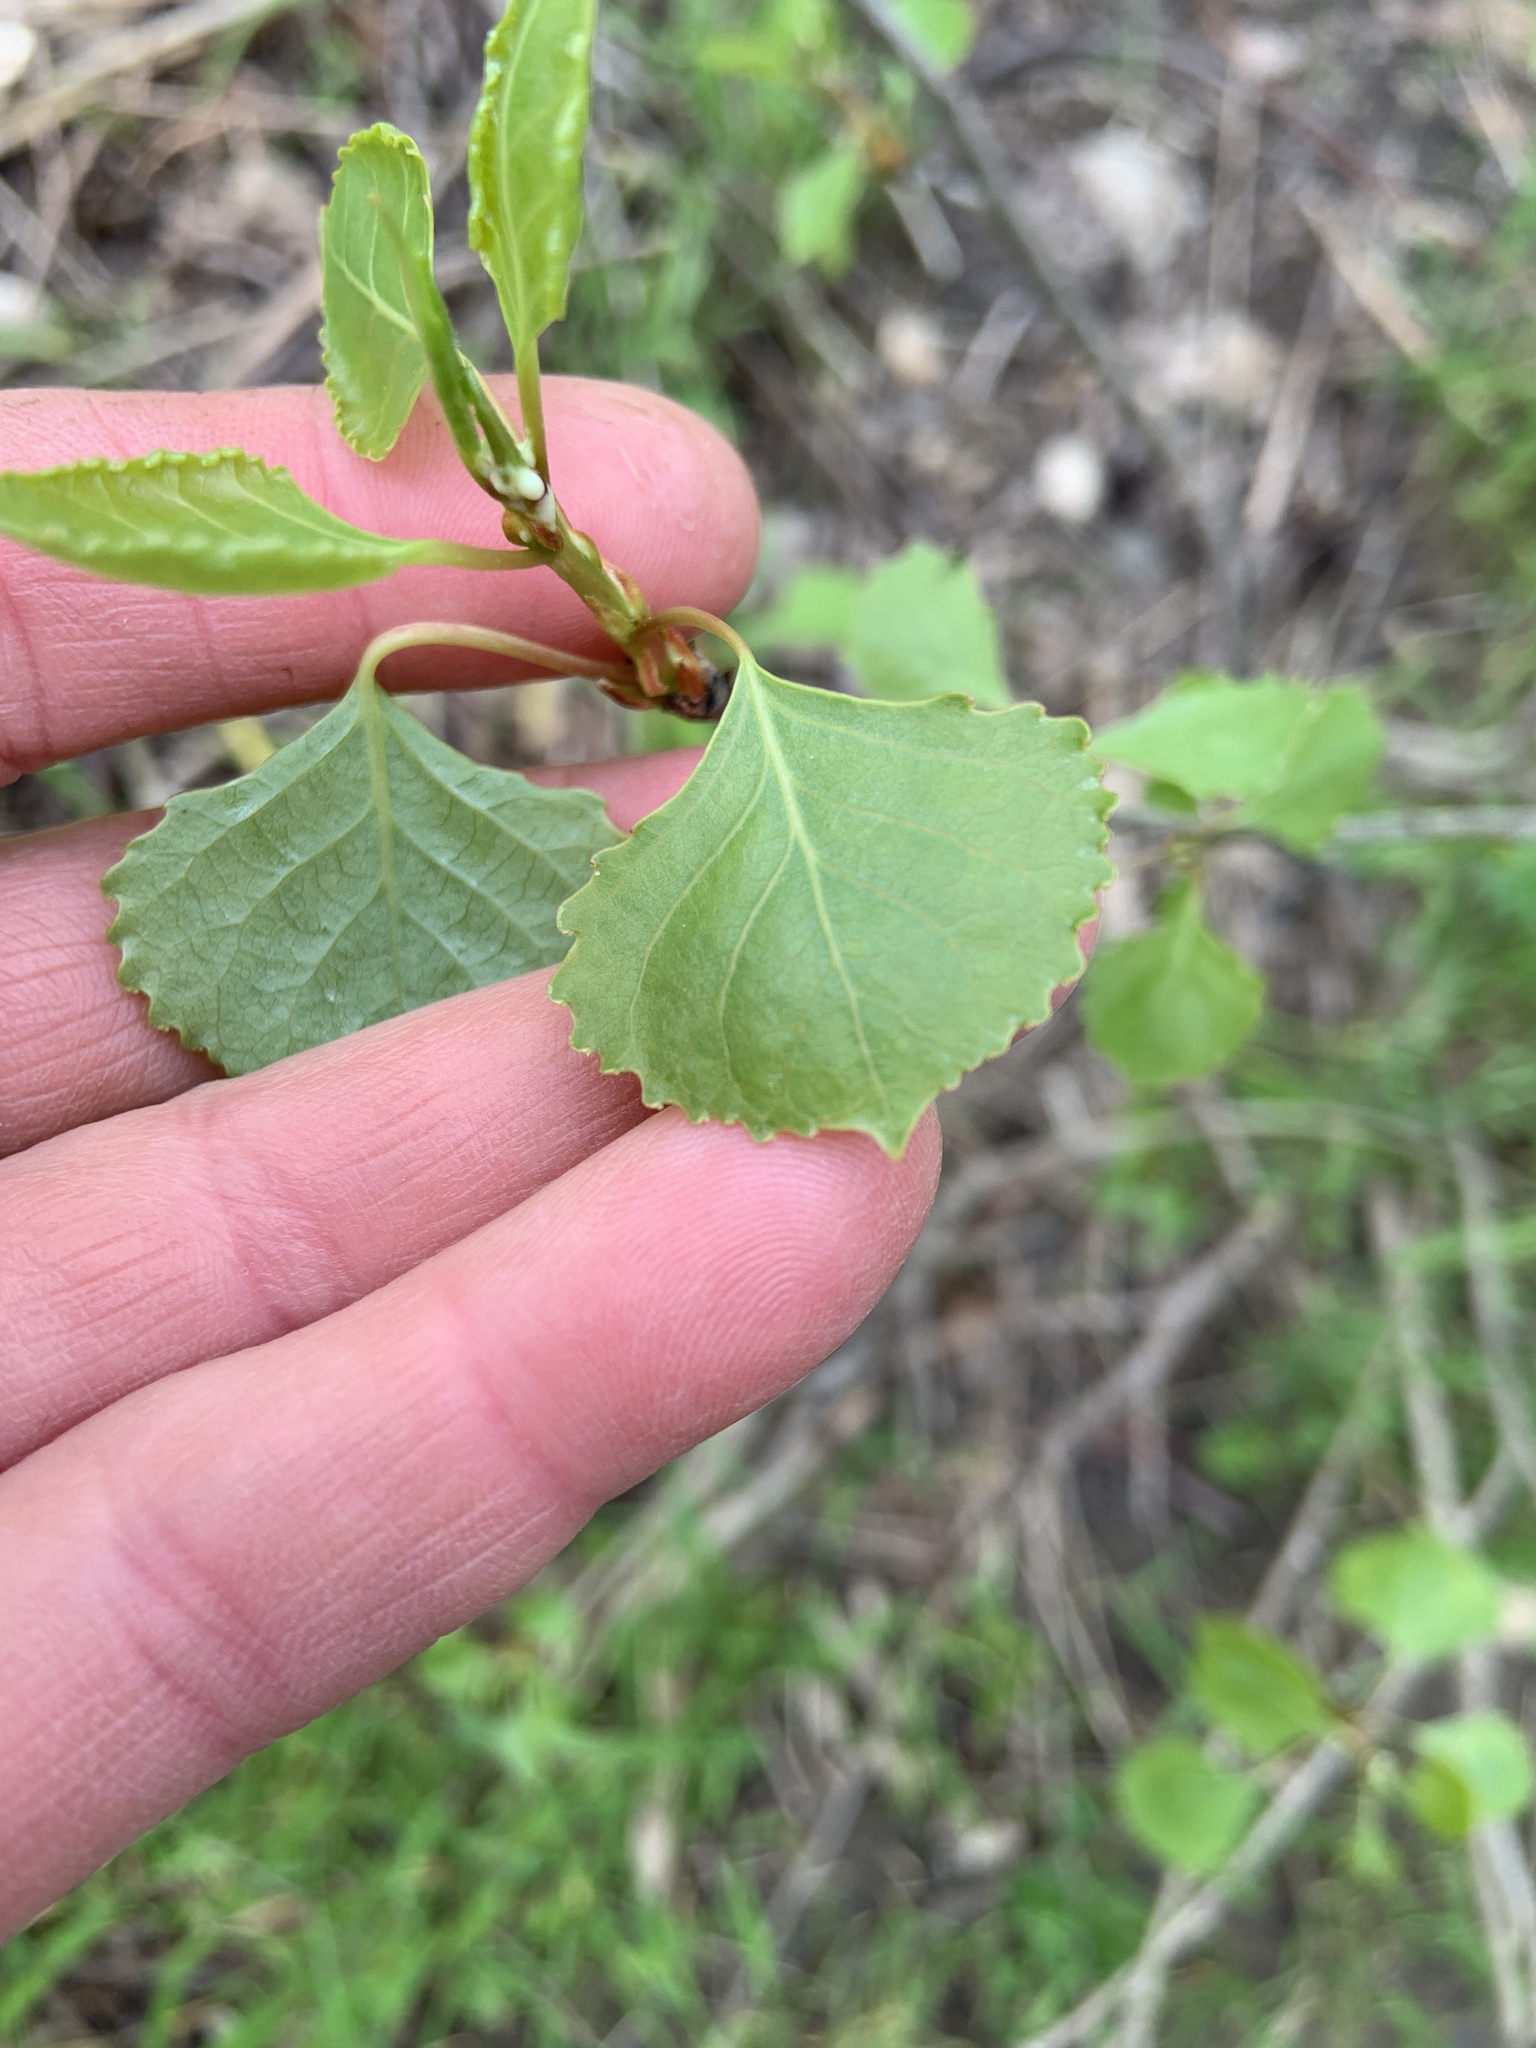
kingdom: Plantae
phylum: Tracheophyta
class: Magnoliopsida
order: Malpighiales
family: Salicaceae
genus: Populus
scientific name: Populus fremontii
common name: Fremont's cottonwood
